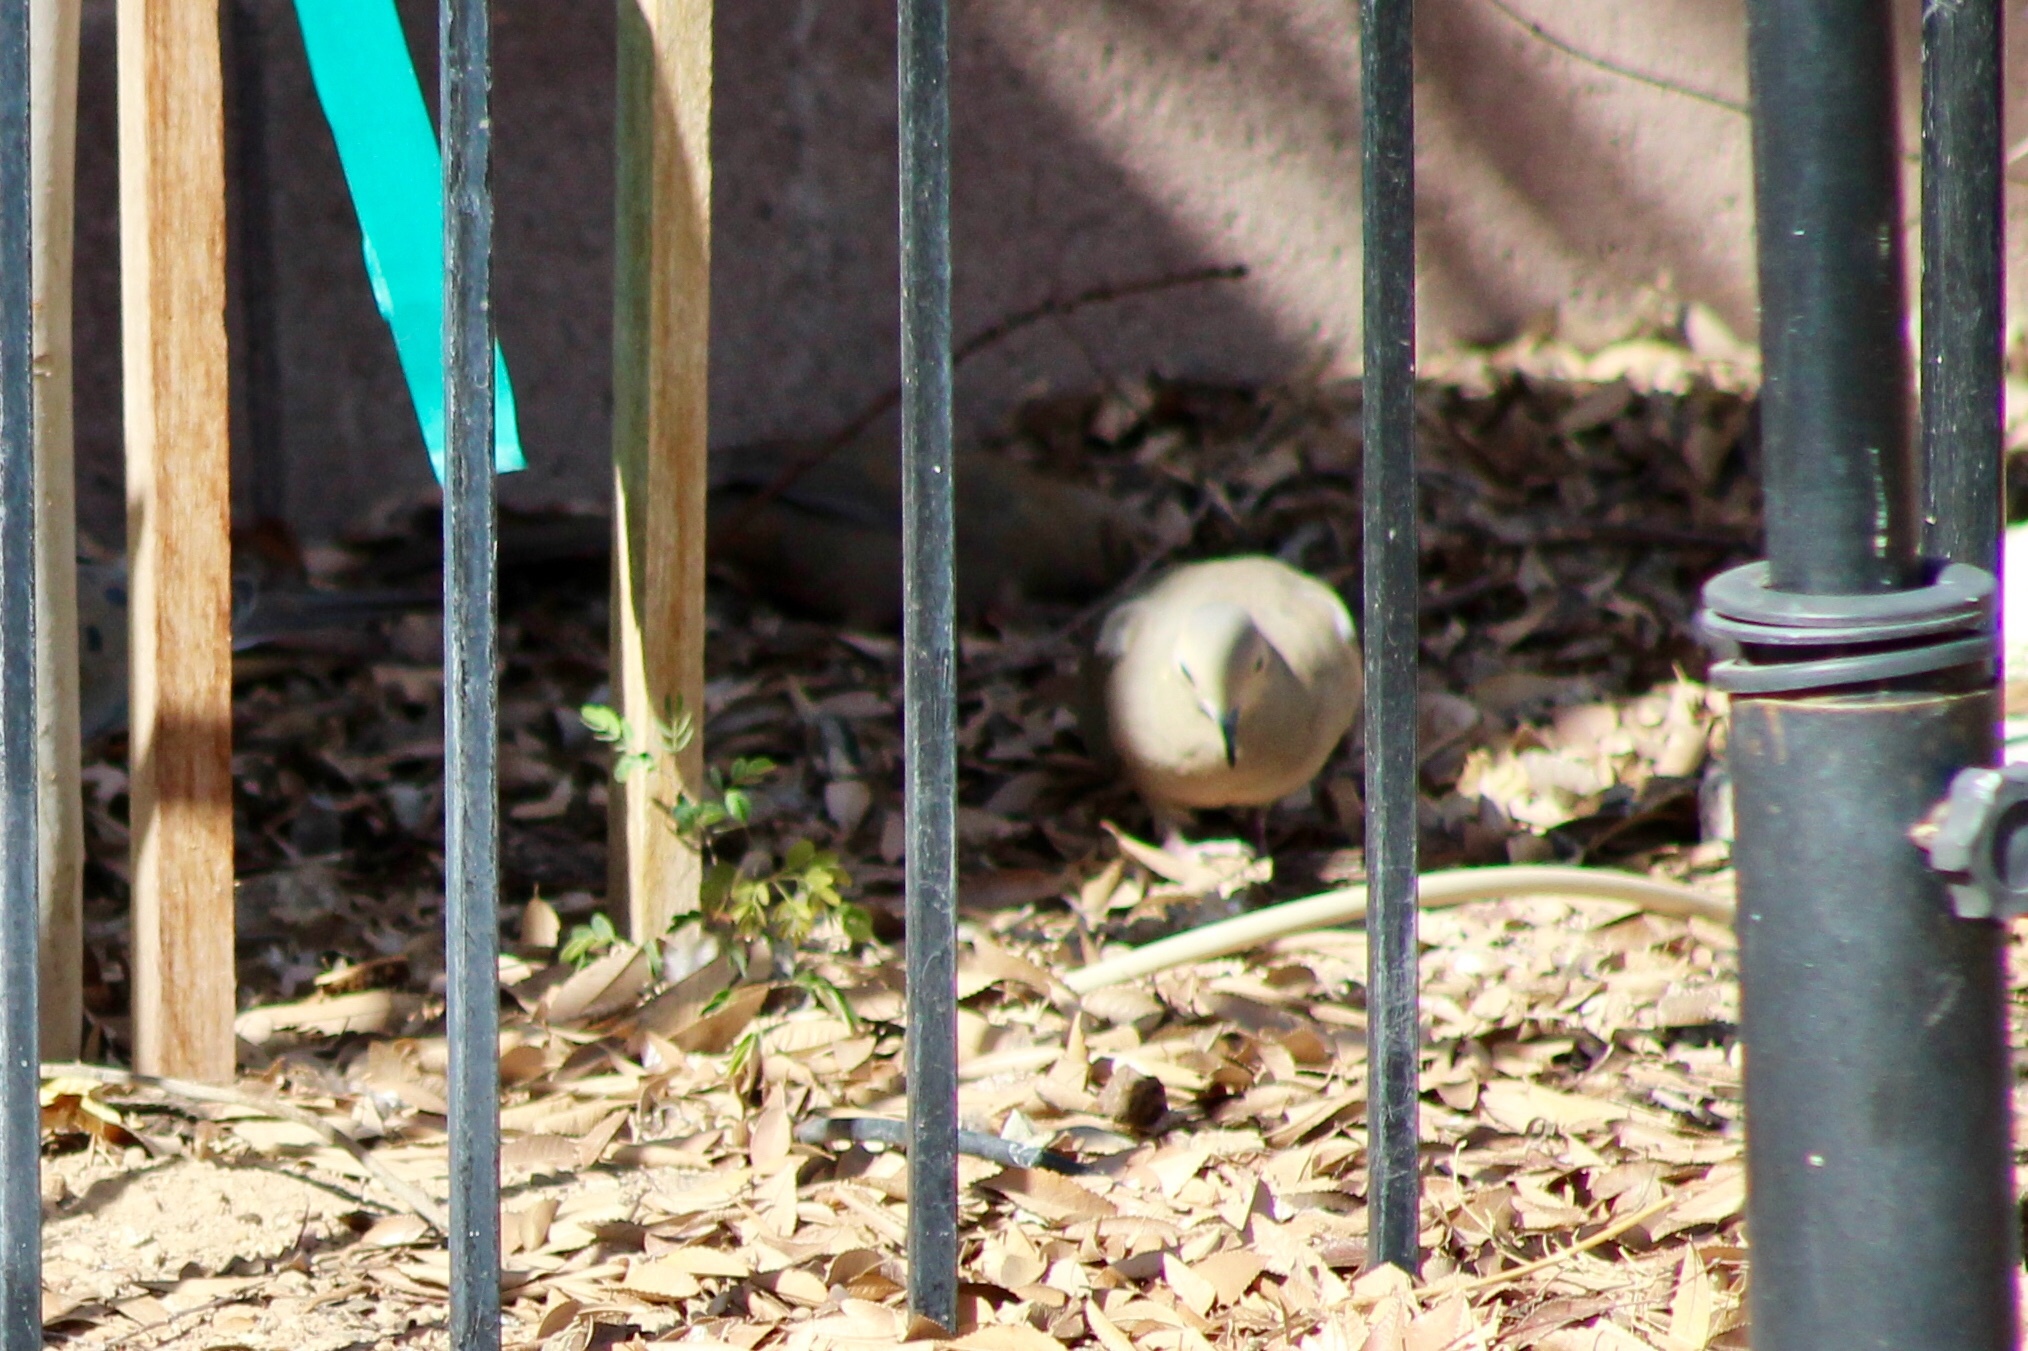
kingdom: Animalia
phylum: Chordata
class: Aves
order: Columbiformes
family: Columbidae
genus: Zenaida
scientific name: Zenaida macroura
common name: Mourning dove
